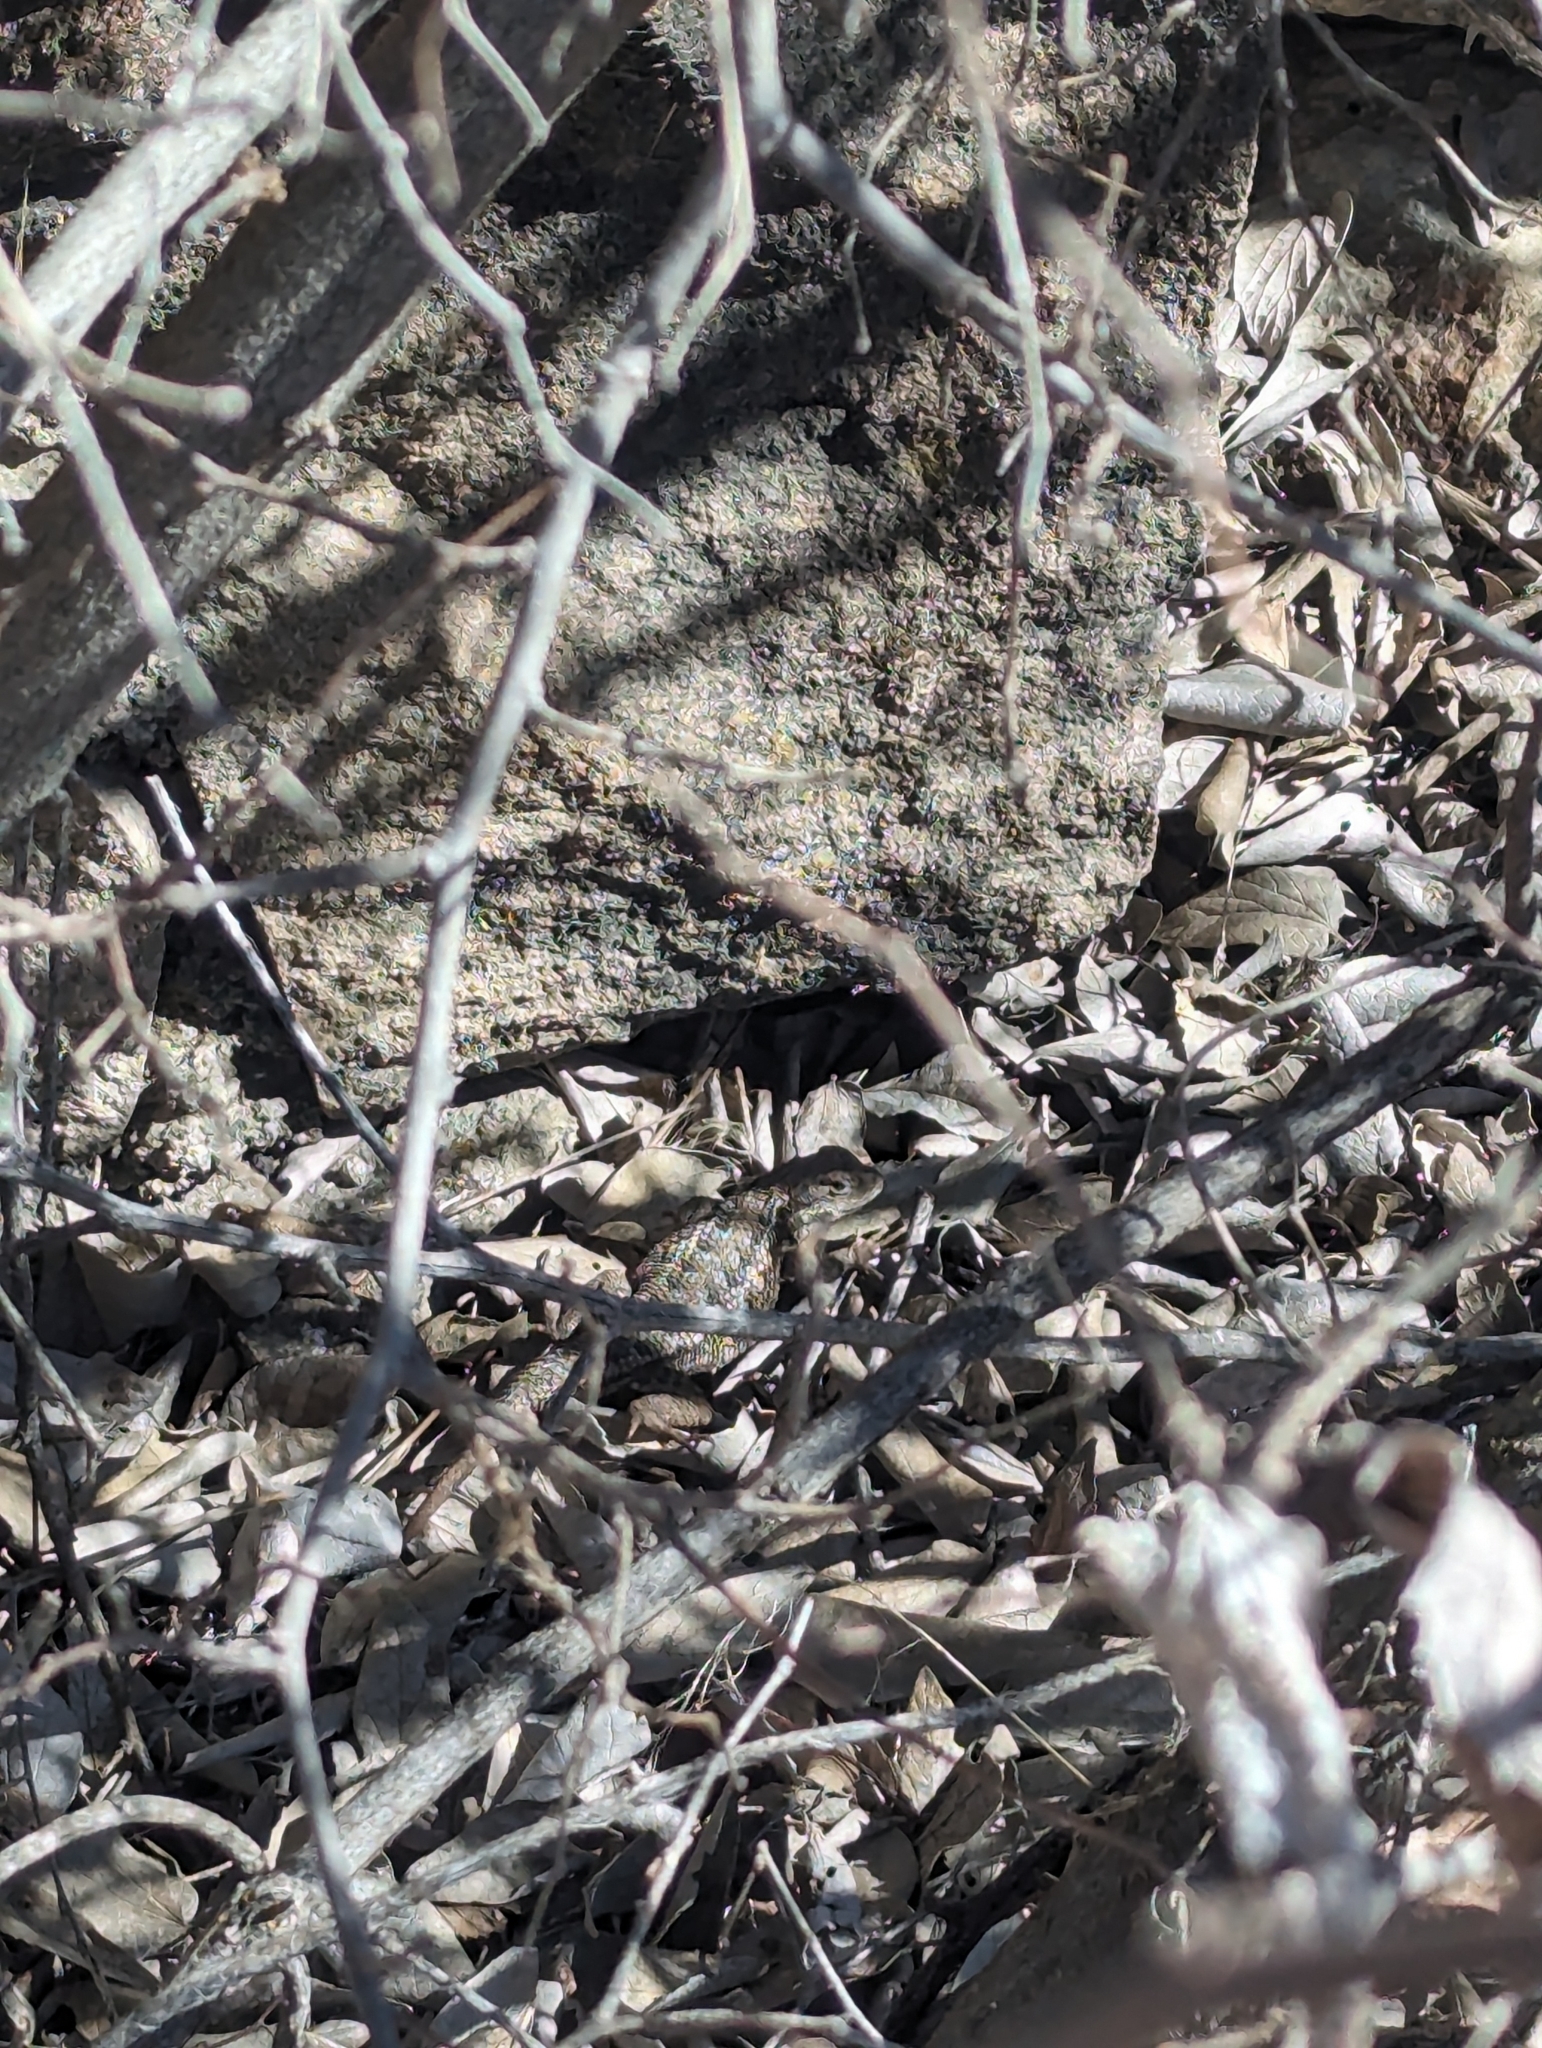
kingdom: Animalia
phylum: Chordata
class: Squamata
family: Phrynosomatidae
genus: Sceloporus
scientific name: Sceloporus occidentalis
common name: Western fence lizard
